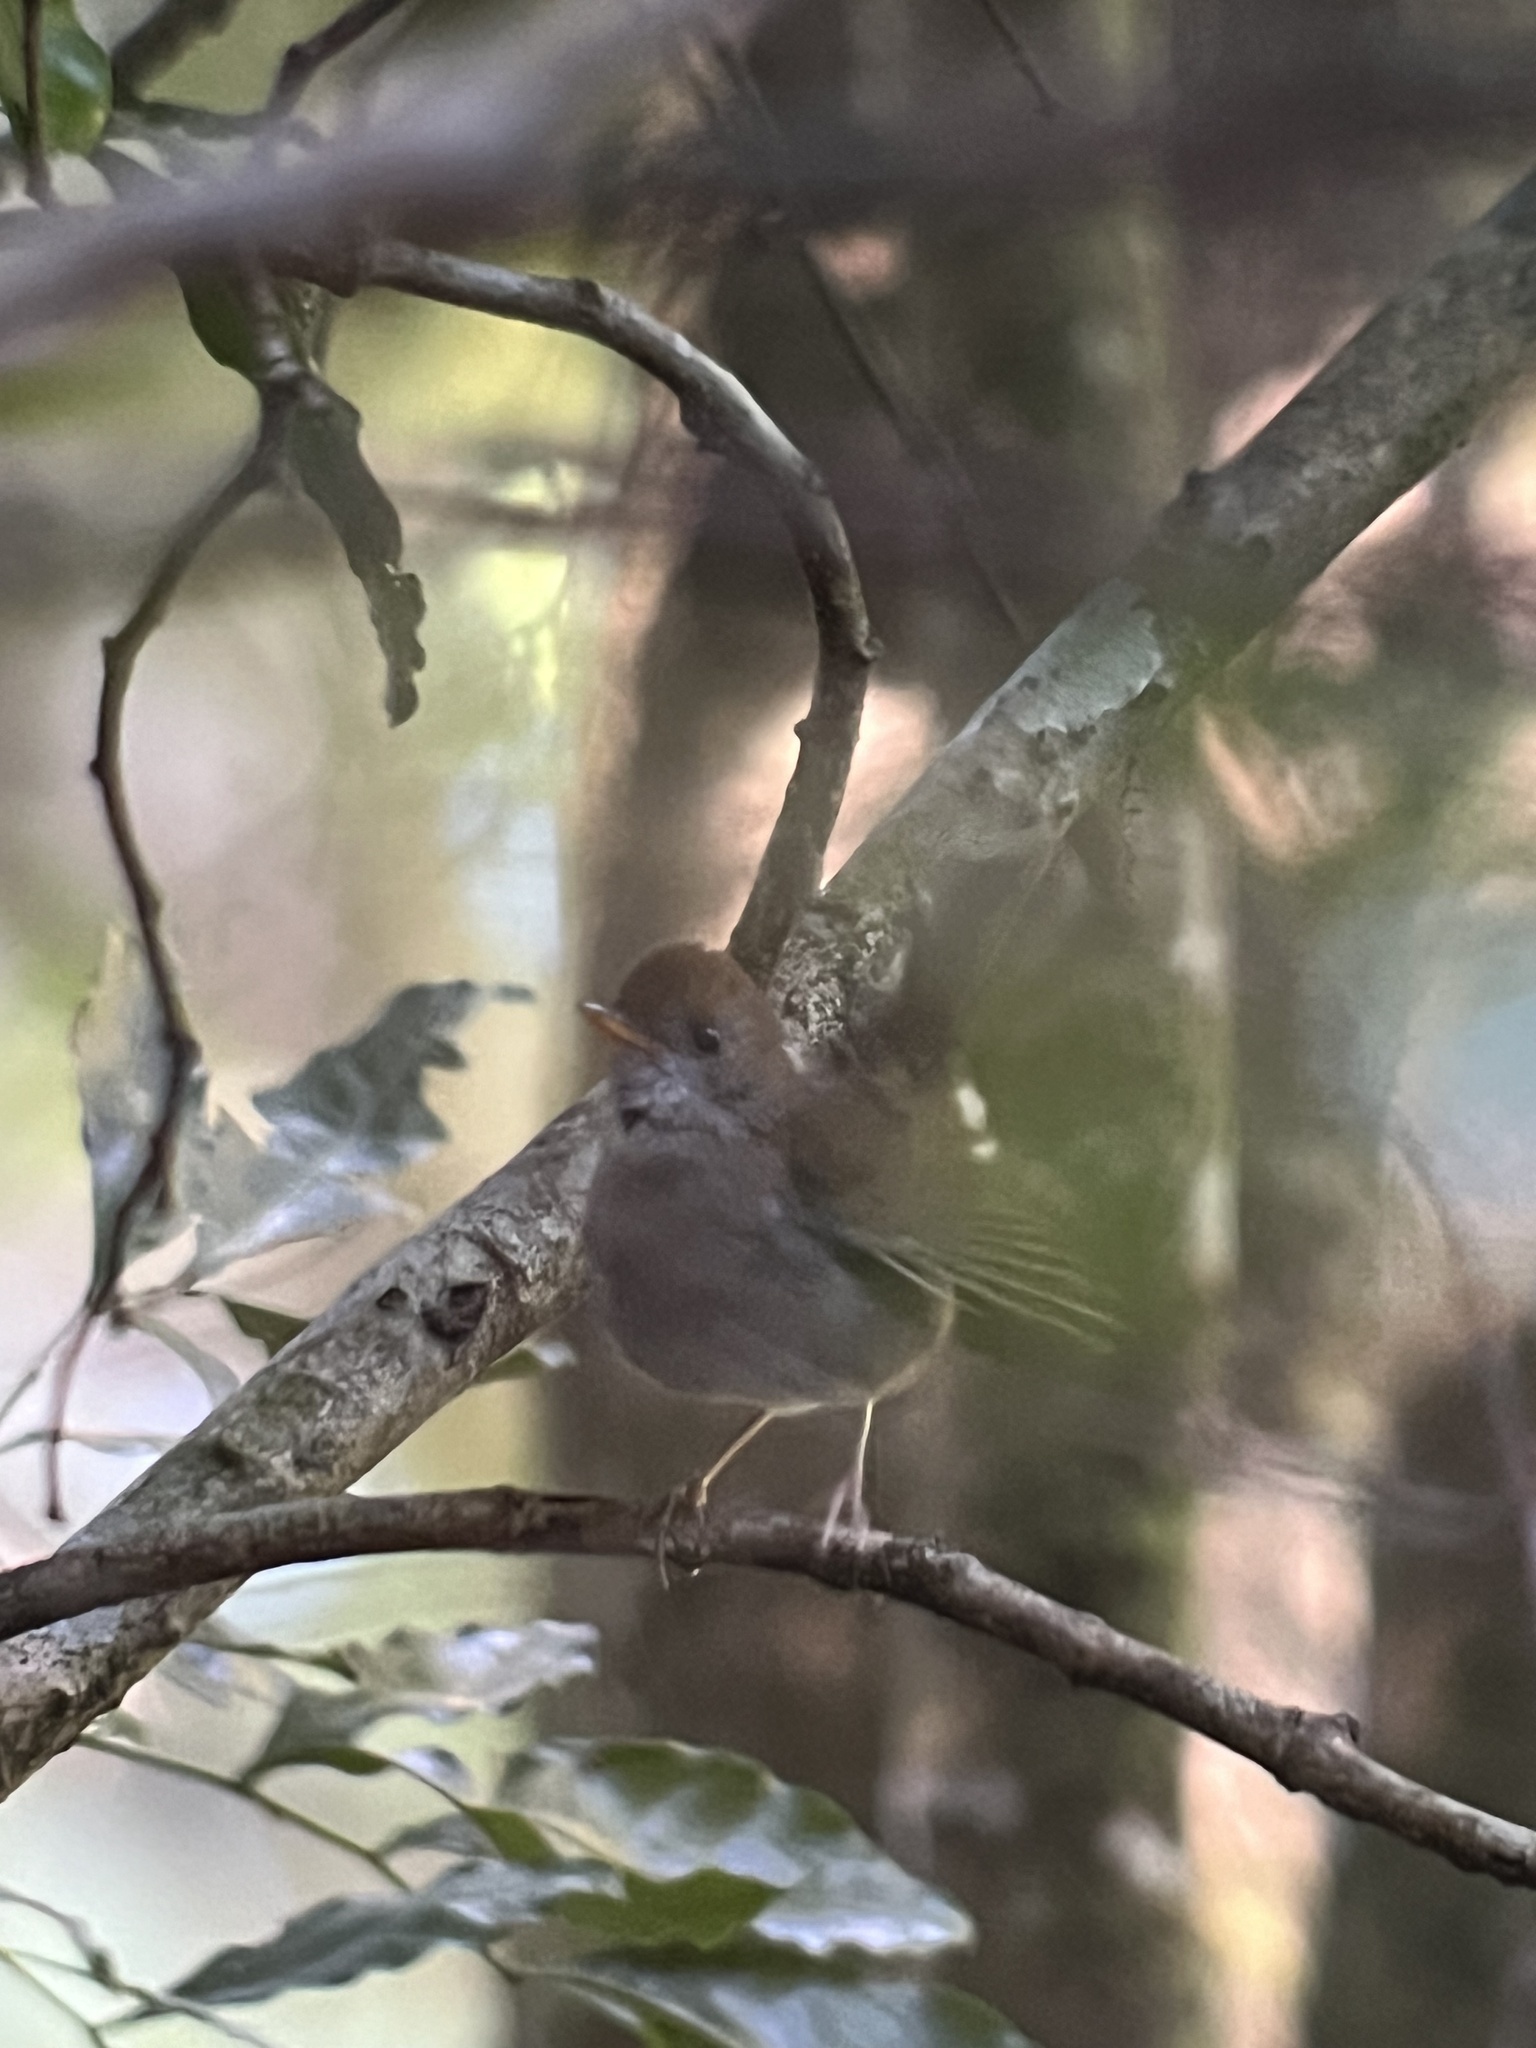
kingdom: Animalia
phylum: Chordata
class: Aves
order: Passeriformes
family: Turdidae
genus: Catharus
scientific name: Catharus frantzii
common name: Ruddy-capped nightingale-thrush
